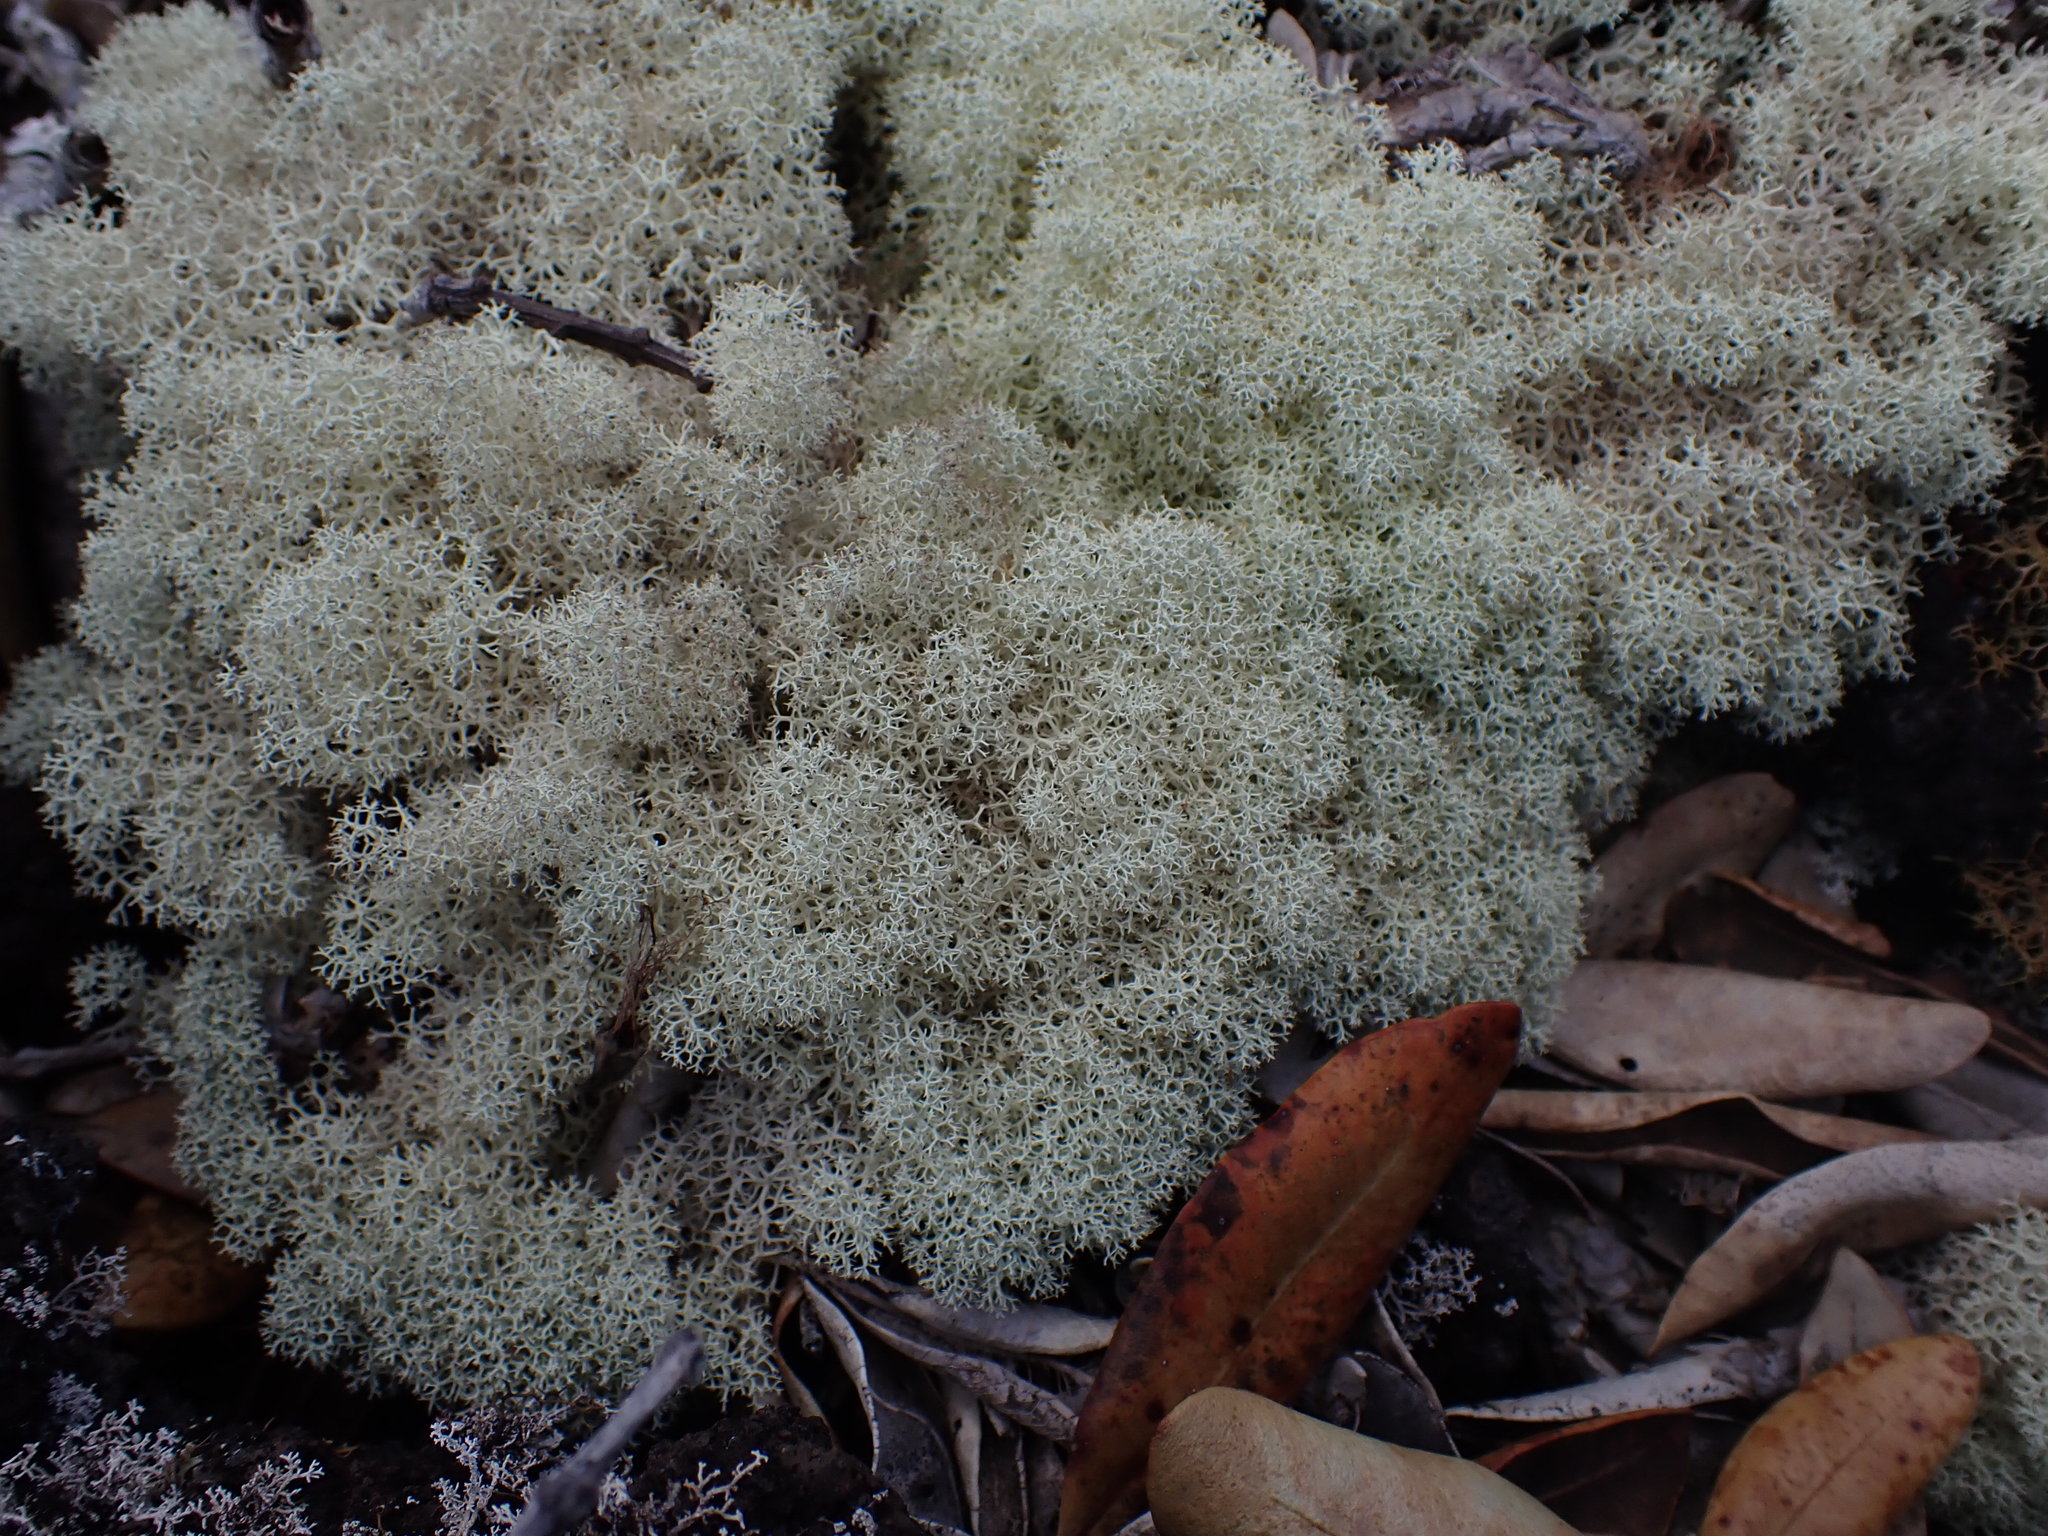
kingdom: Fungi
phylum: Ascomycota
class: Lecanoromycetes
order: Lecanorales
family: Cladoniaceae
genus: Cladonia
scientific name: Cladonia confusa
